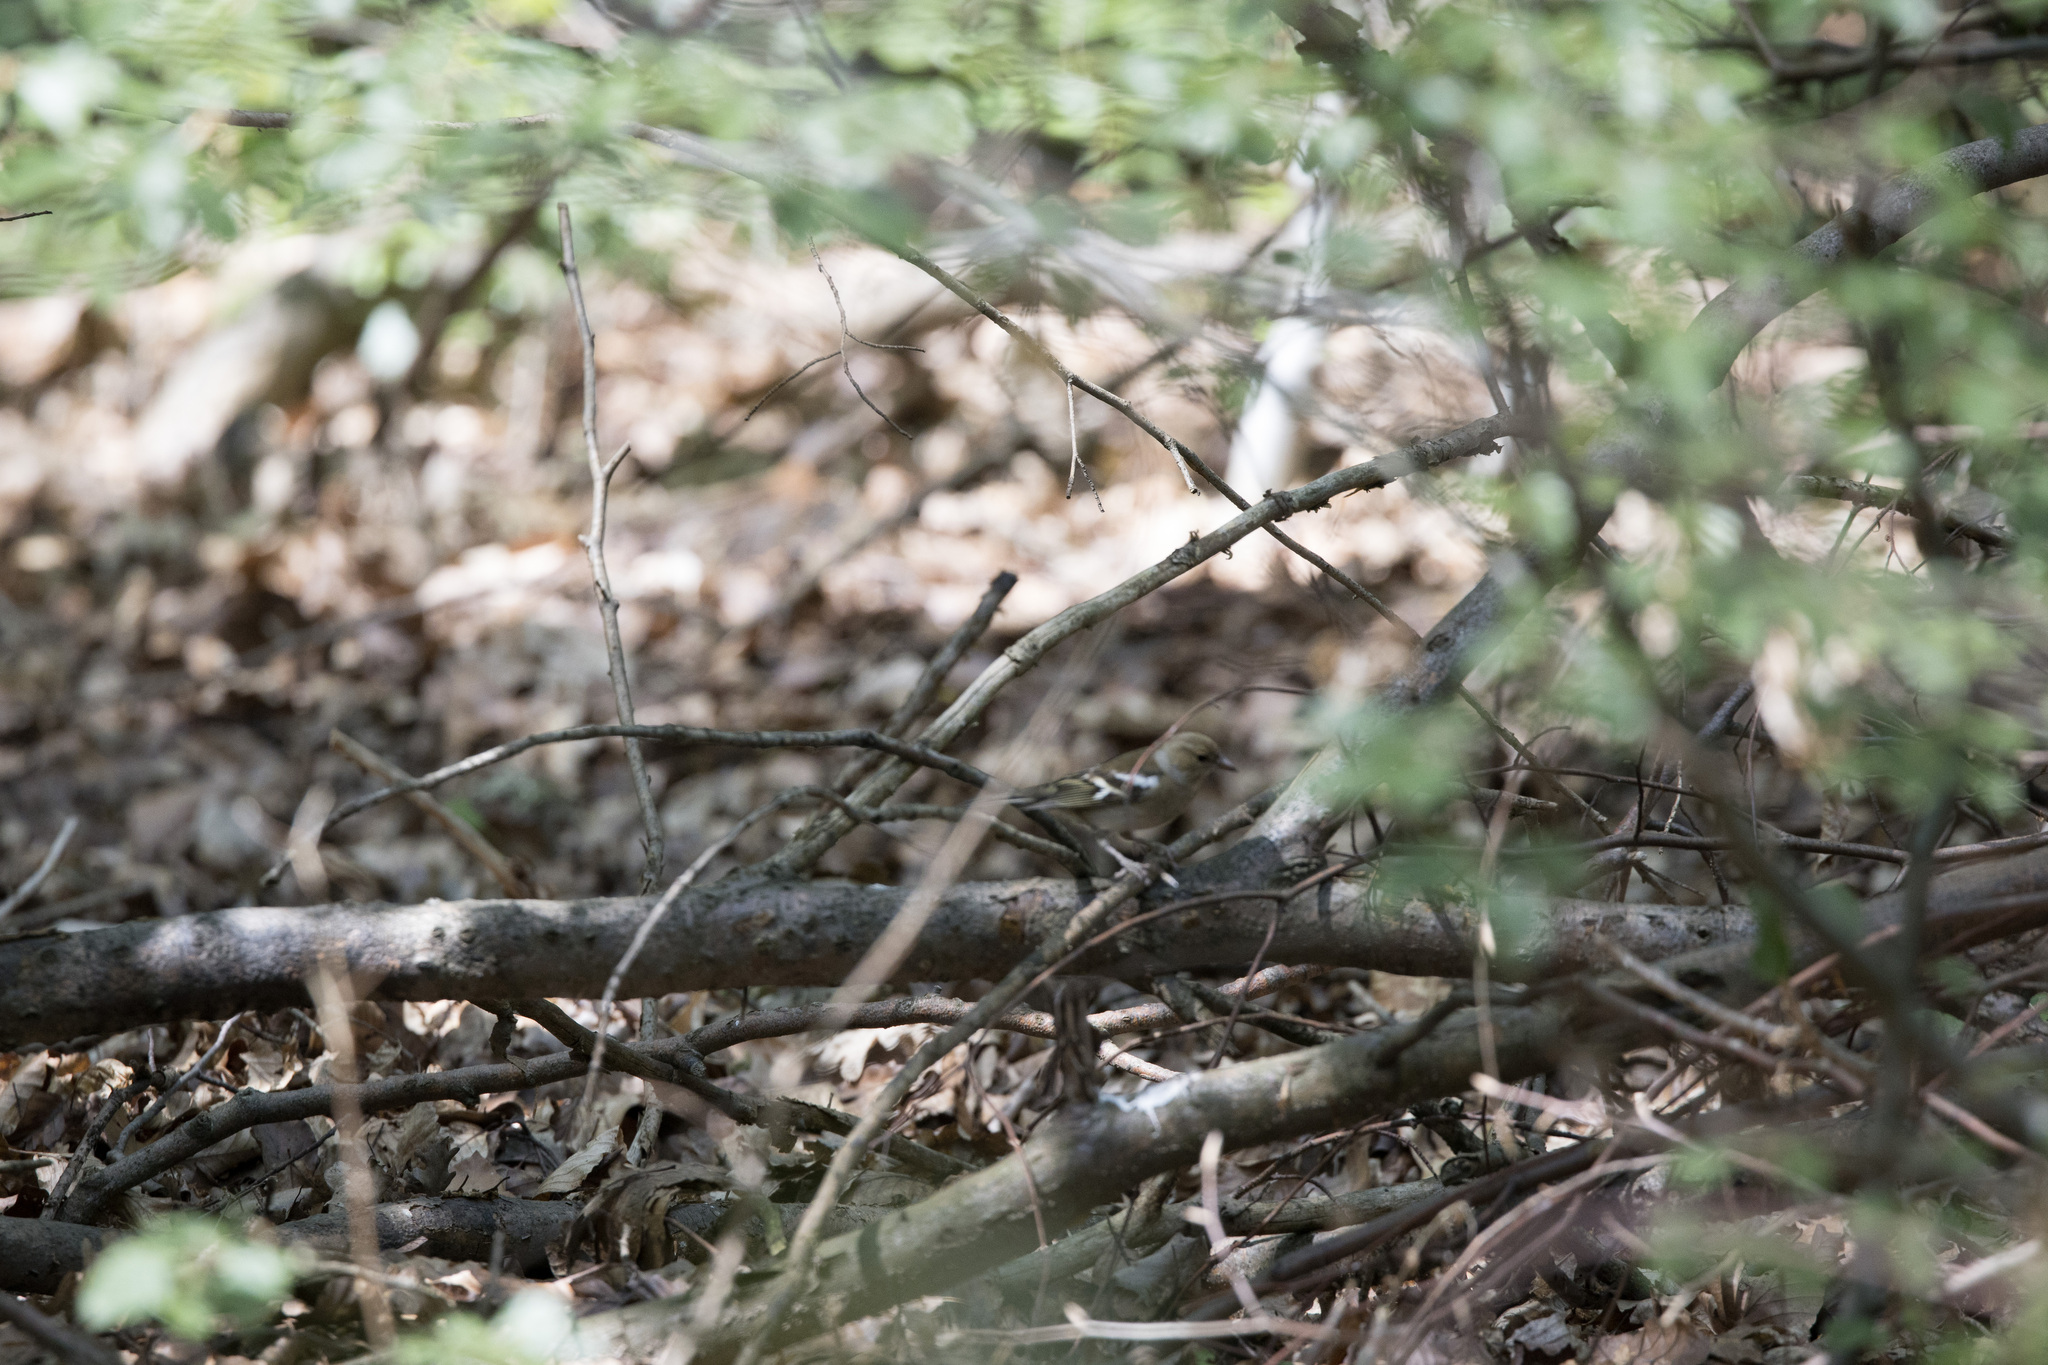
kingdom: Animalia
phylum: Chordata
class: Aves
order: Passeriformes
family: Fringillidae
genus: Fringilla
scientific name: Fringilla coelebs
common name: Common chaffinch
